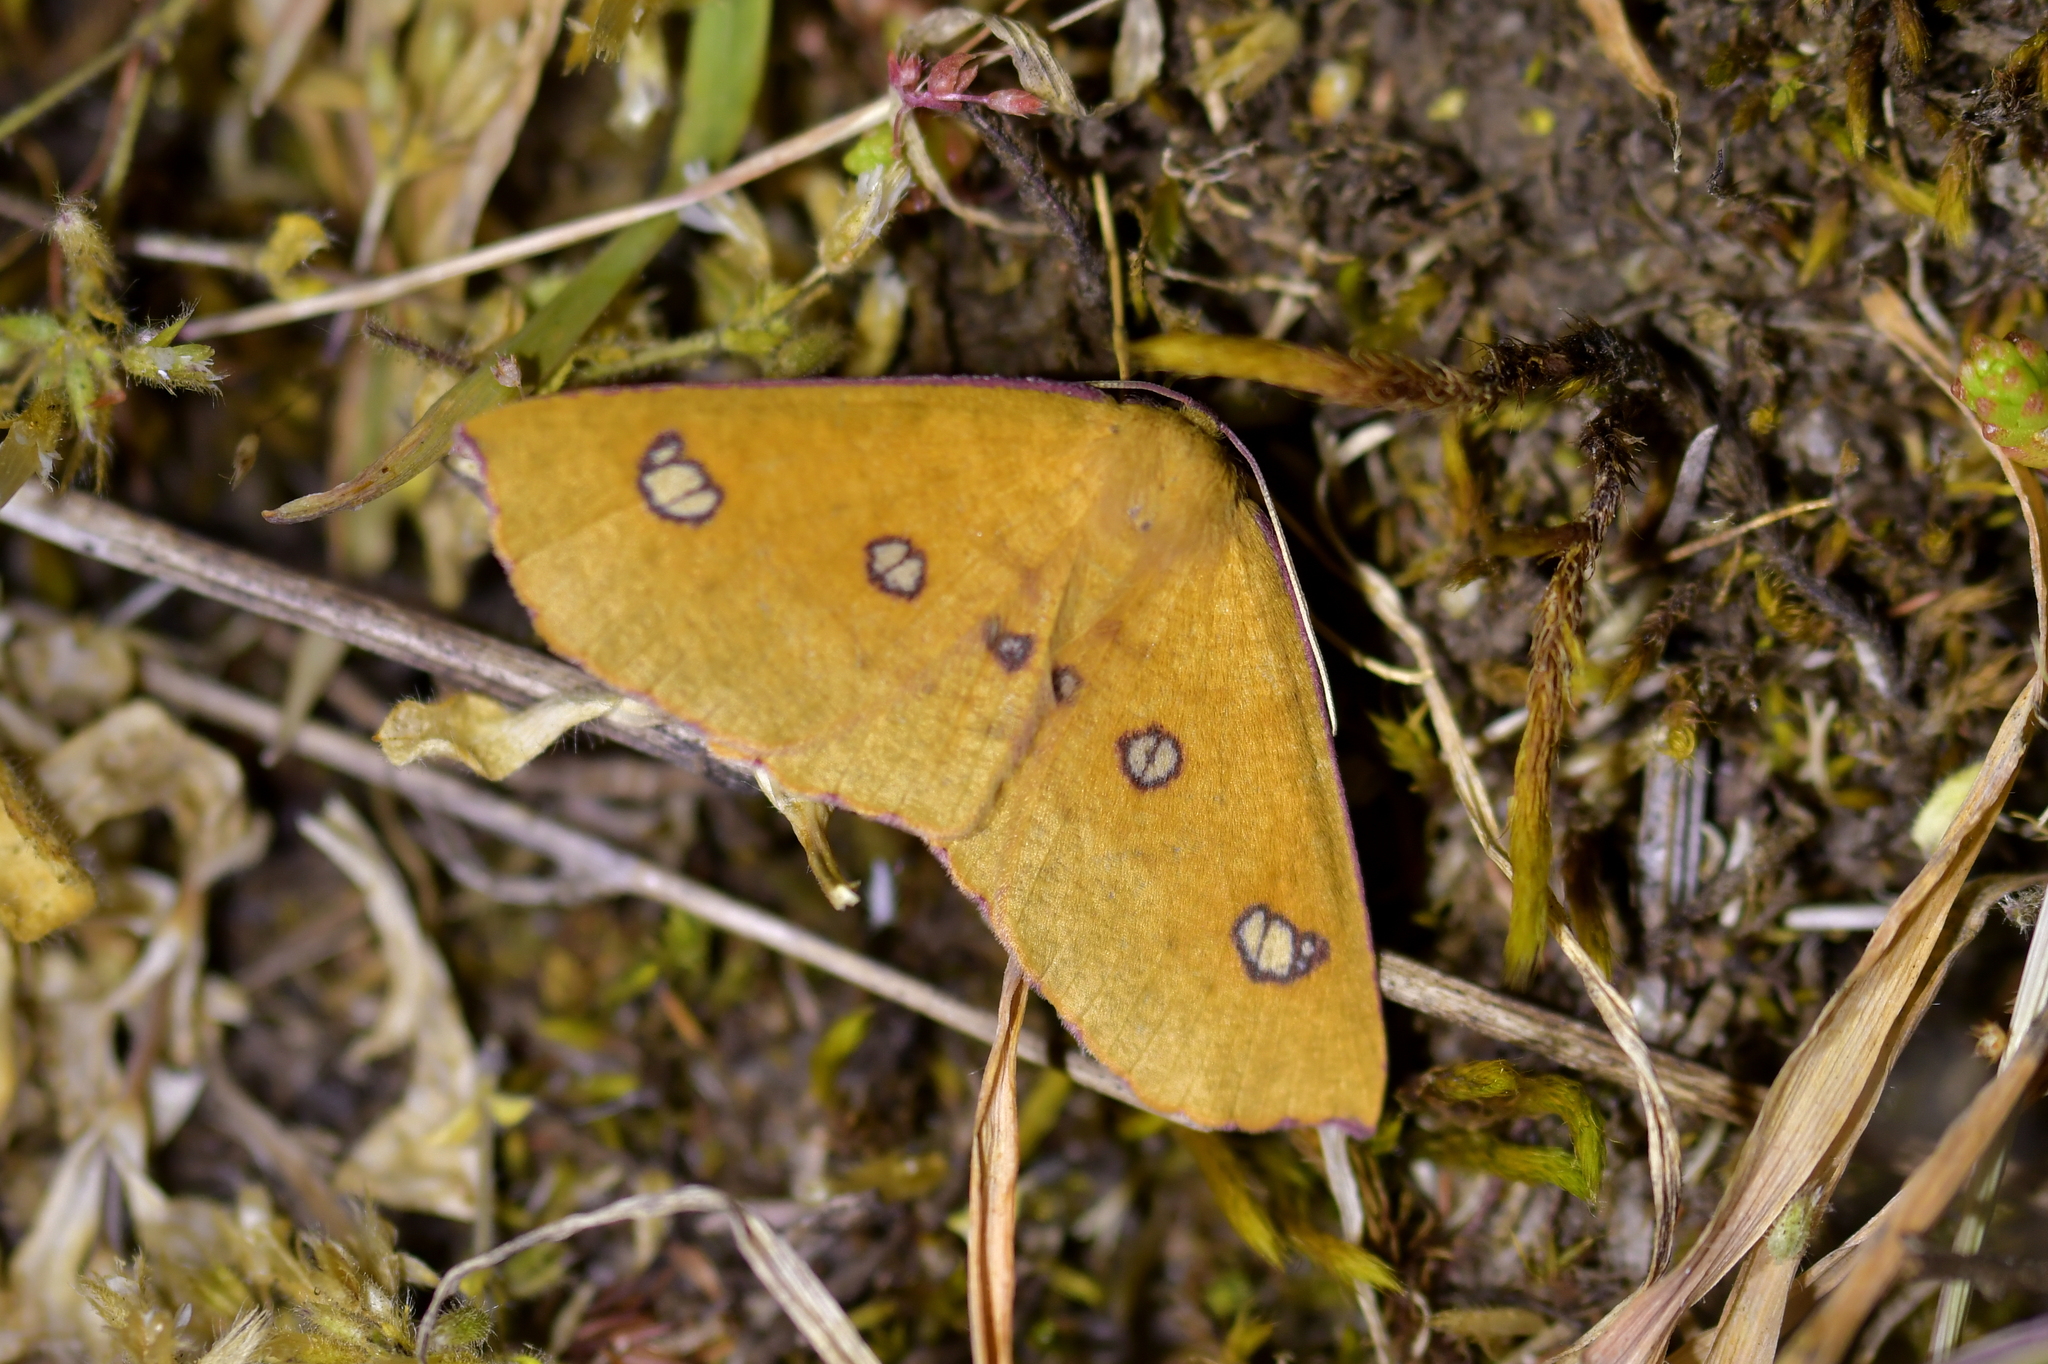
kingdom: Animalia
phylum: Arthropoda
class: Insecta
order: Lepidoptera
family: Geometridae
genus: Xyridacma
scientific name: Xyridacma alectoraria
